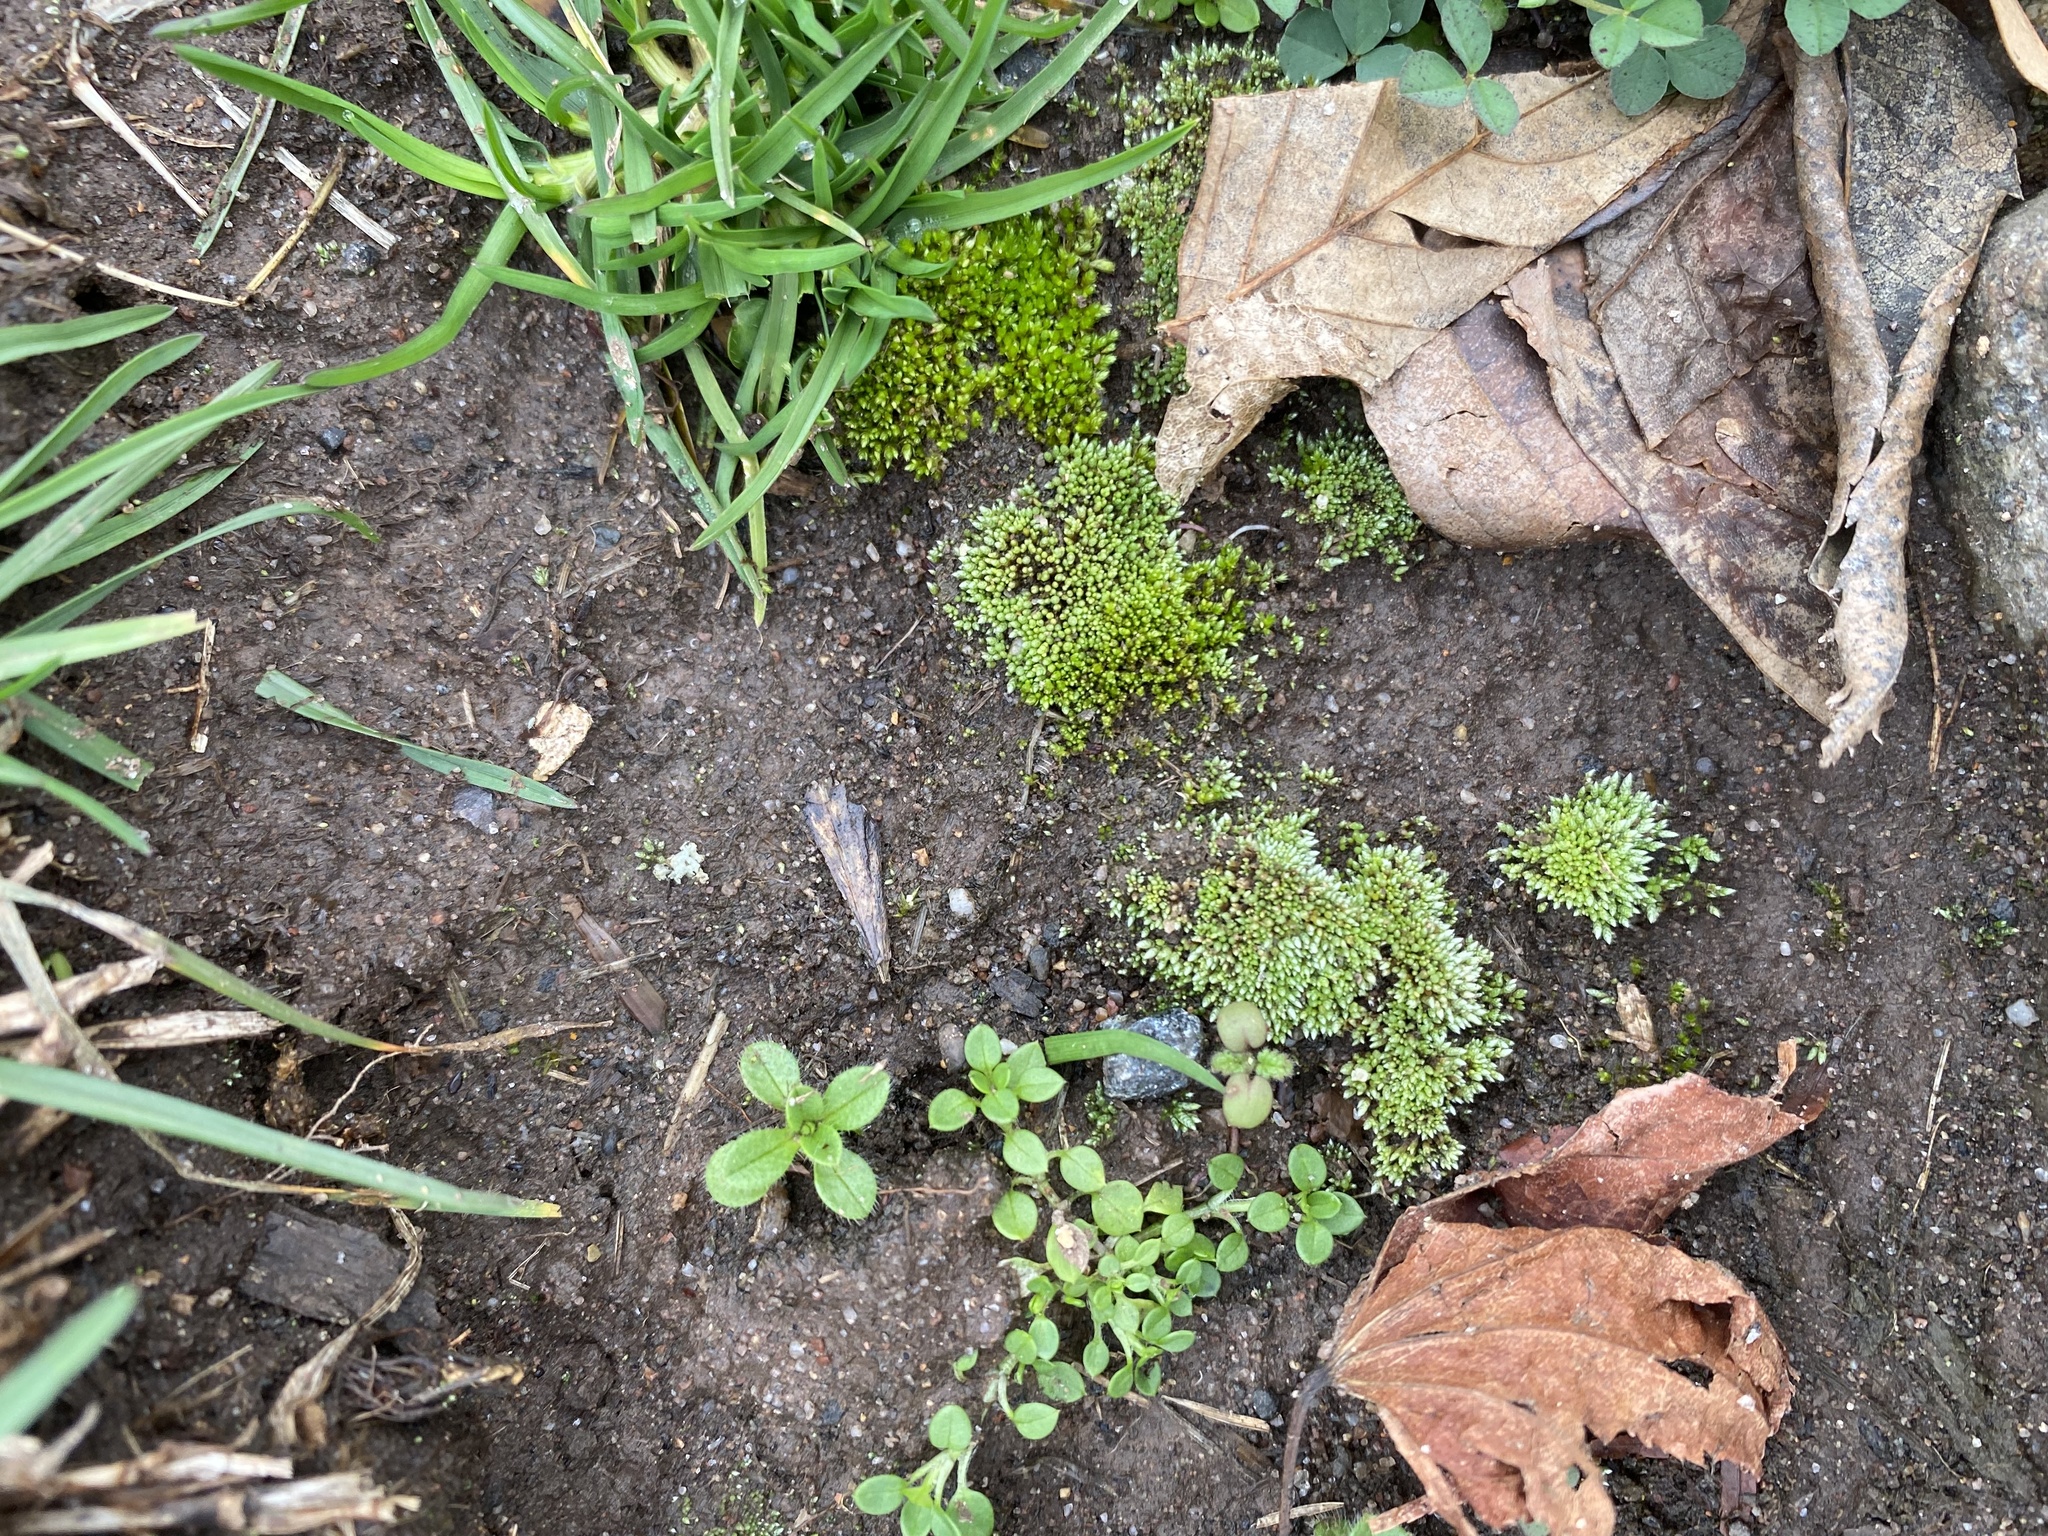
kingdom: Plantae
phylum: Bryophyta
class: Bryopsida
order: Bryales
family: Bryaceae
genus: Bryum
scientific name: Bryum argenteum
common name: Silver-moss
